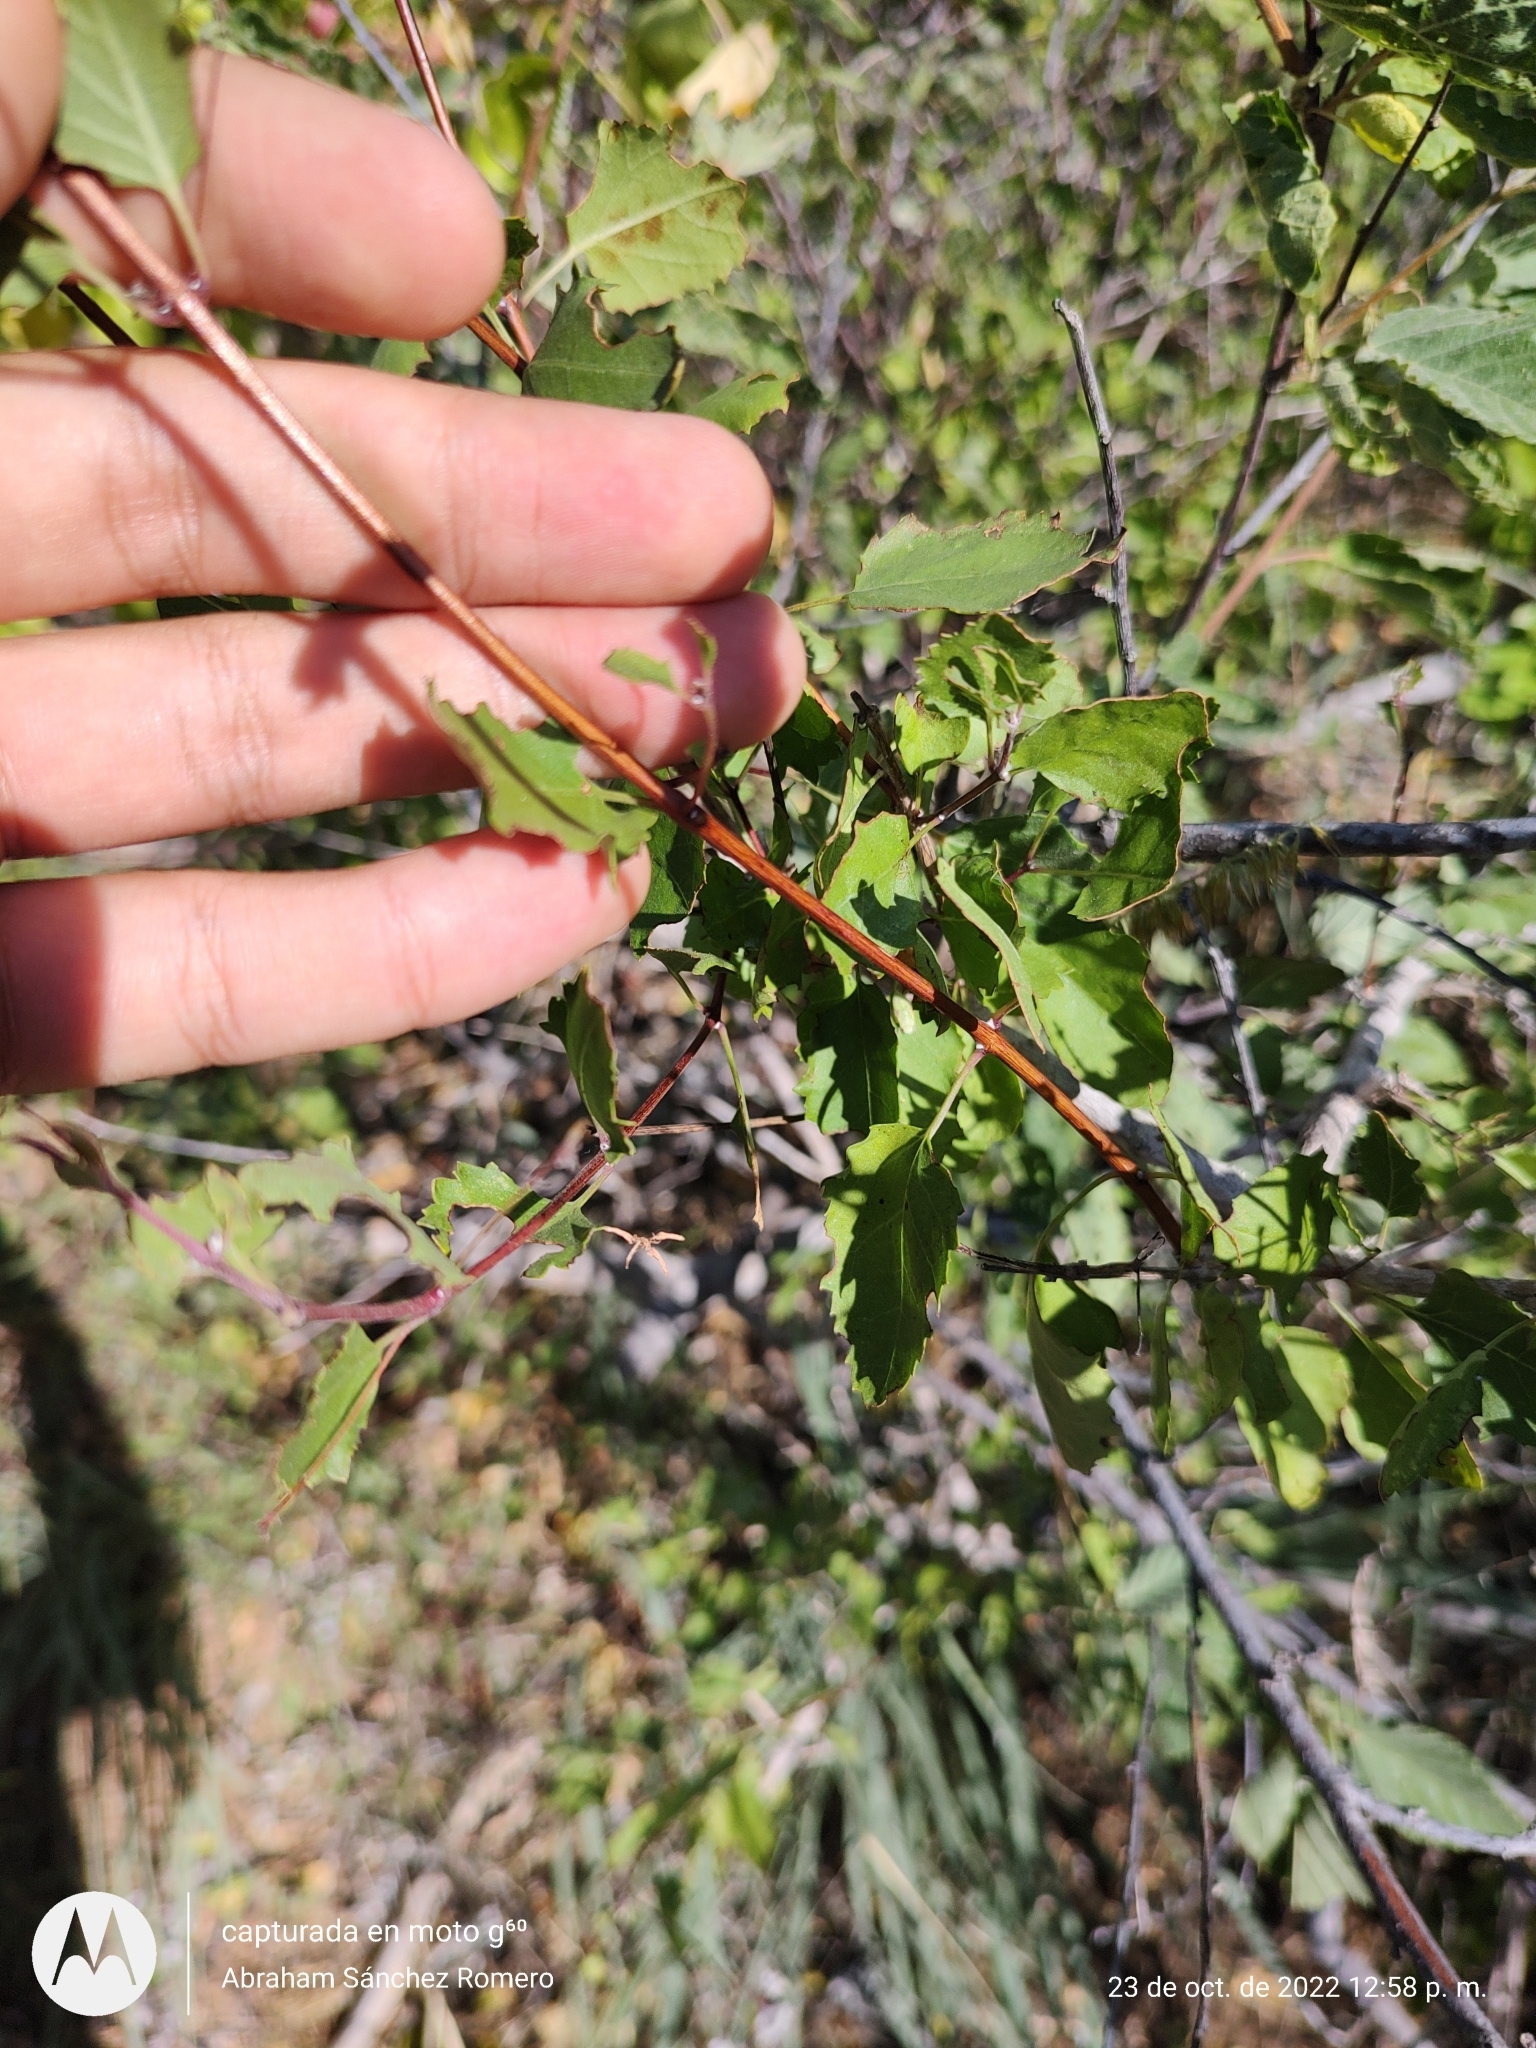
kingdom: Plantae
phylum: Tracheophyta
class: Magnoliopsida
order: Lamiales
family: Lamiaceae
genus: Condea
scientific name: Condea laniflora
